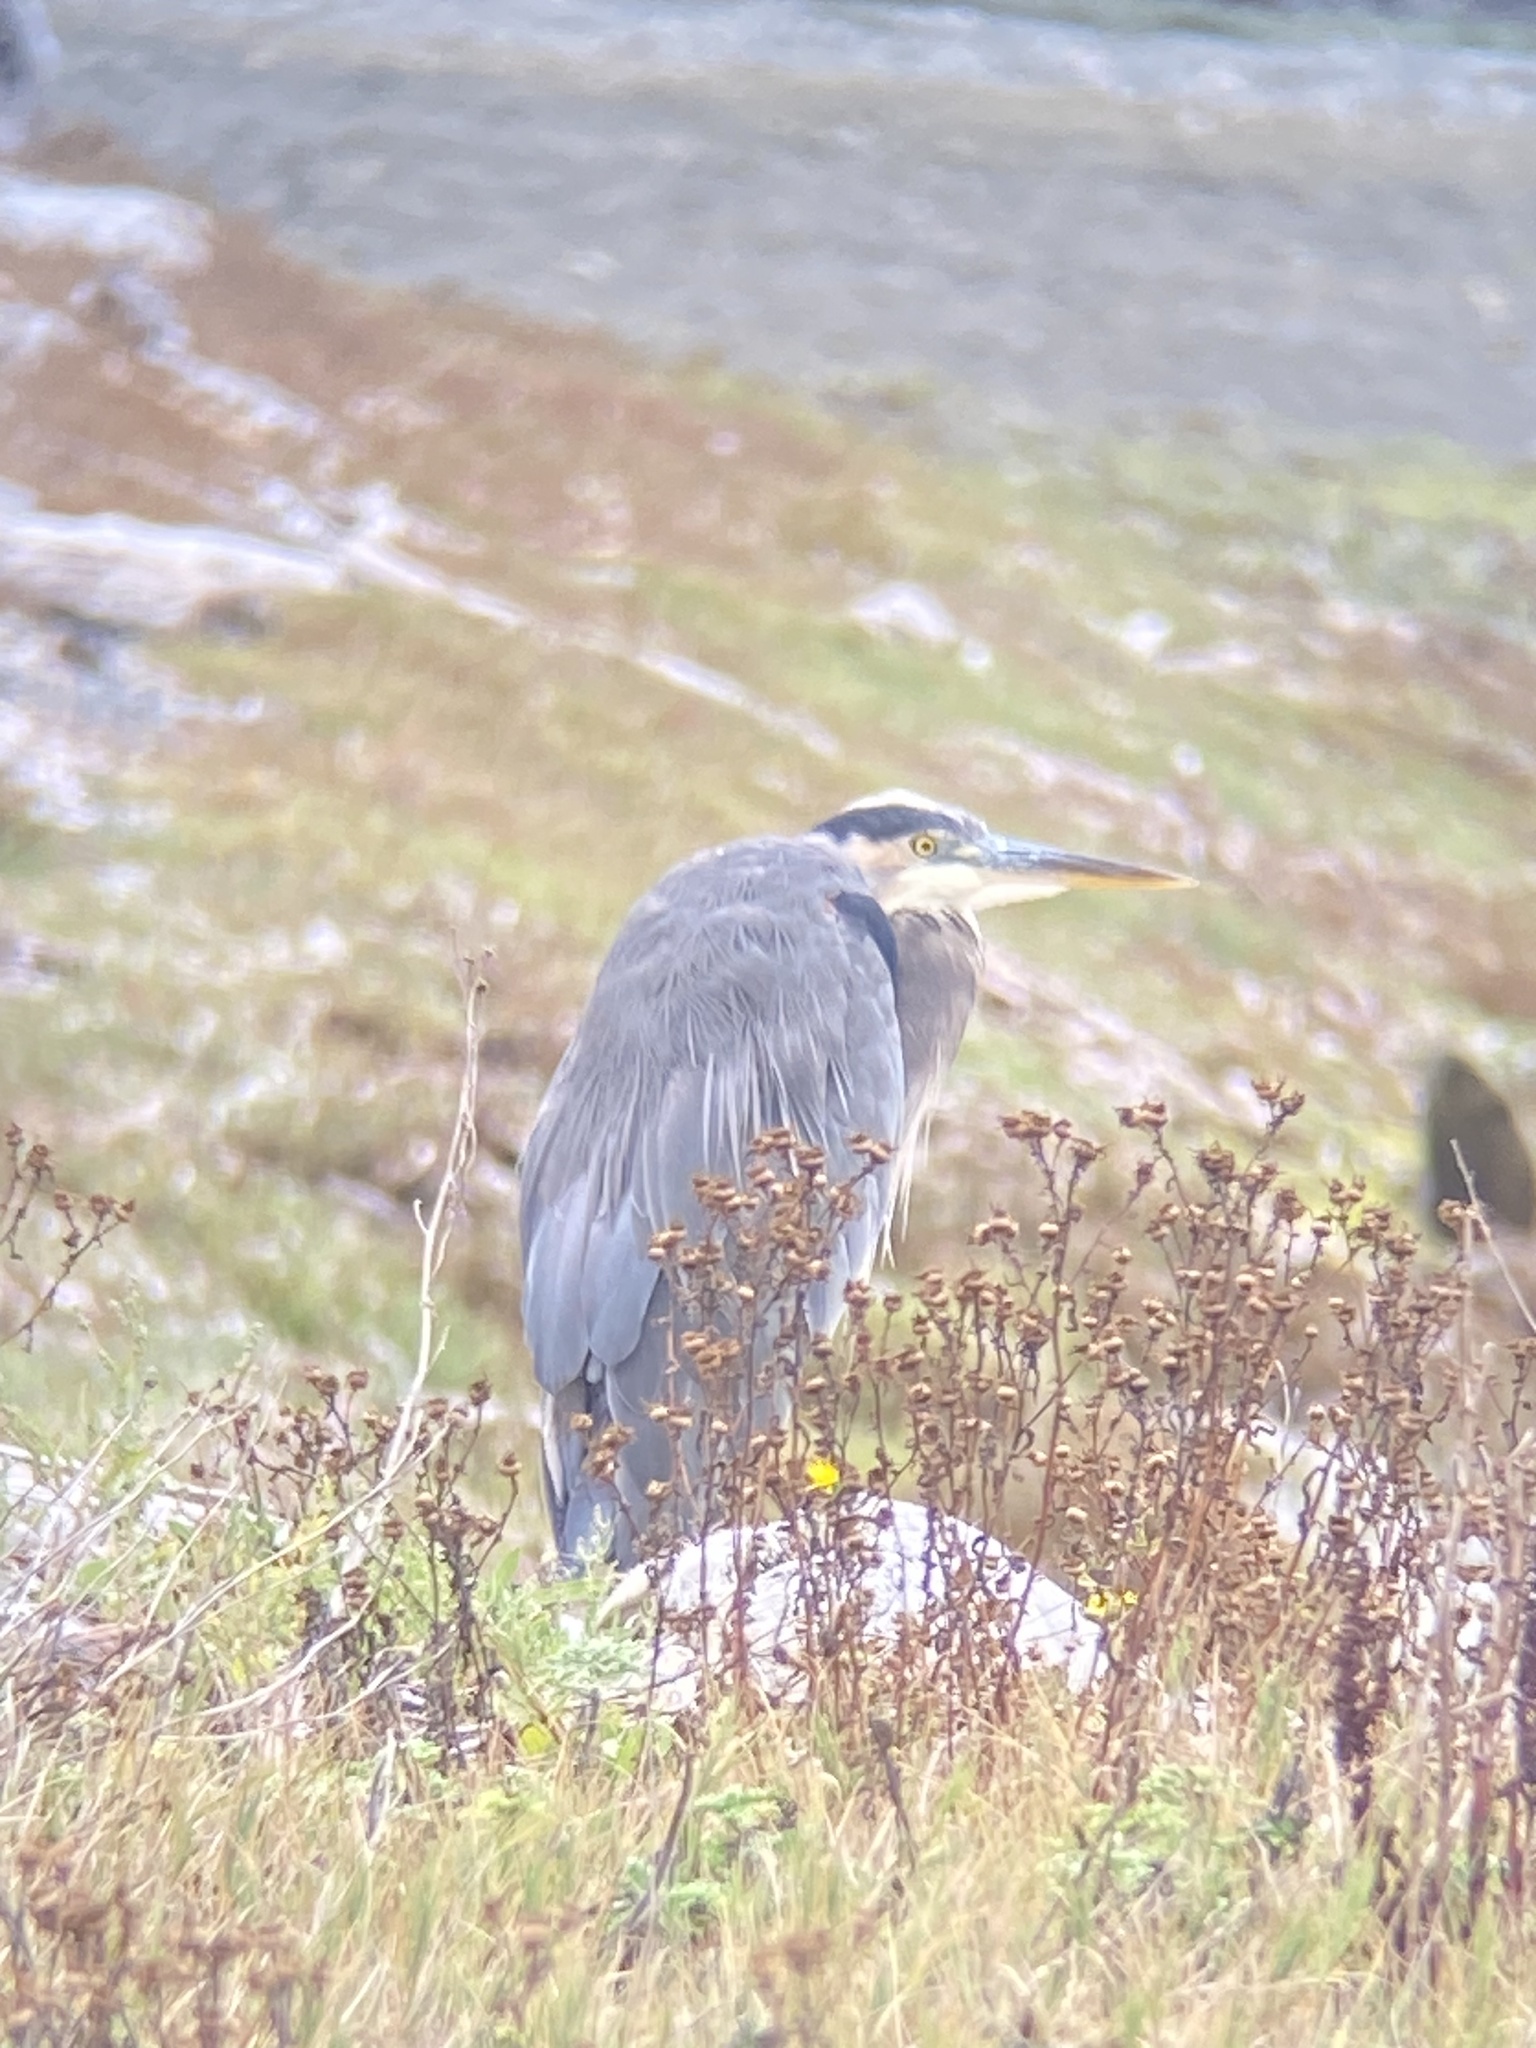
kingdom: Animalia
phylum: Chordata
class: Aves
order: Pelecaniformes
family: Ardeidae
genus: Ardea
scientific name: Ardea herodias
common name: Great blue heron
